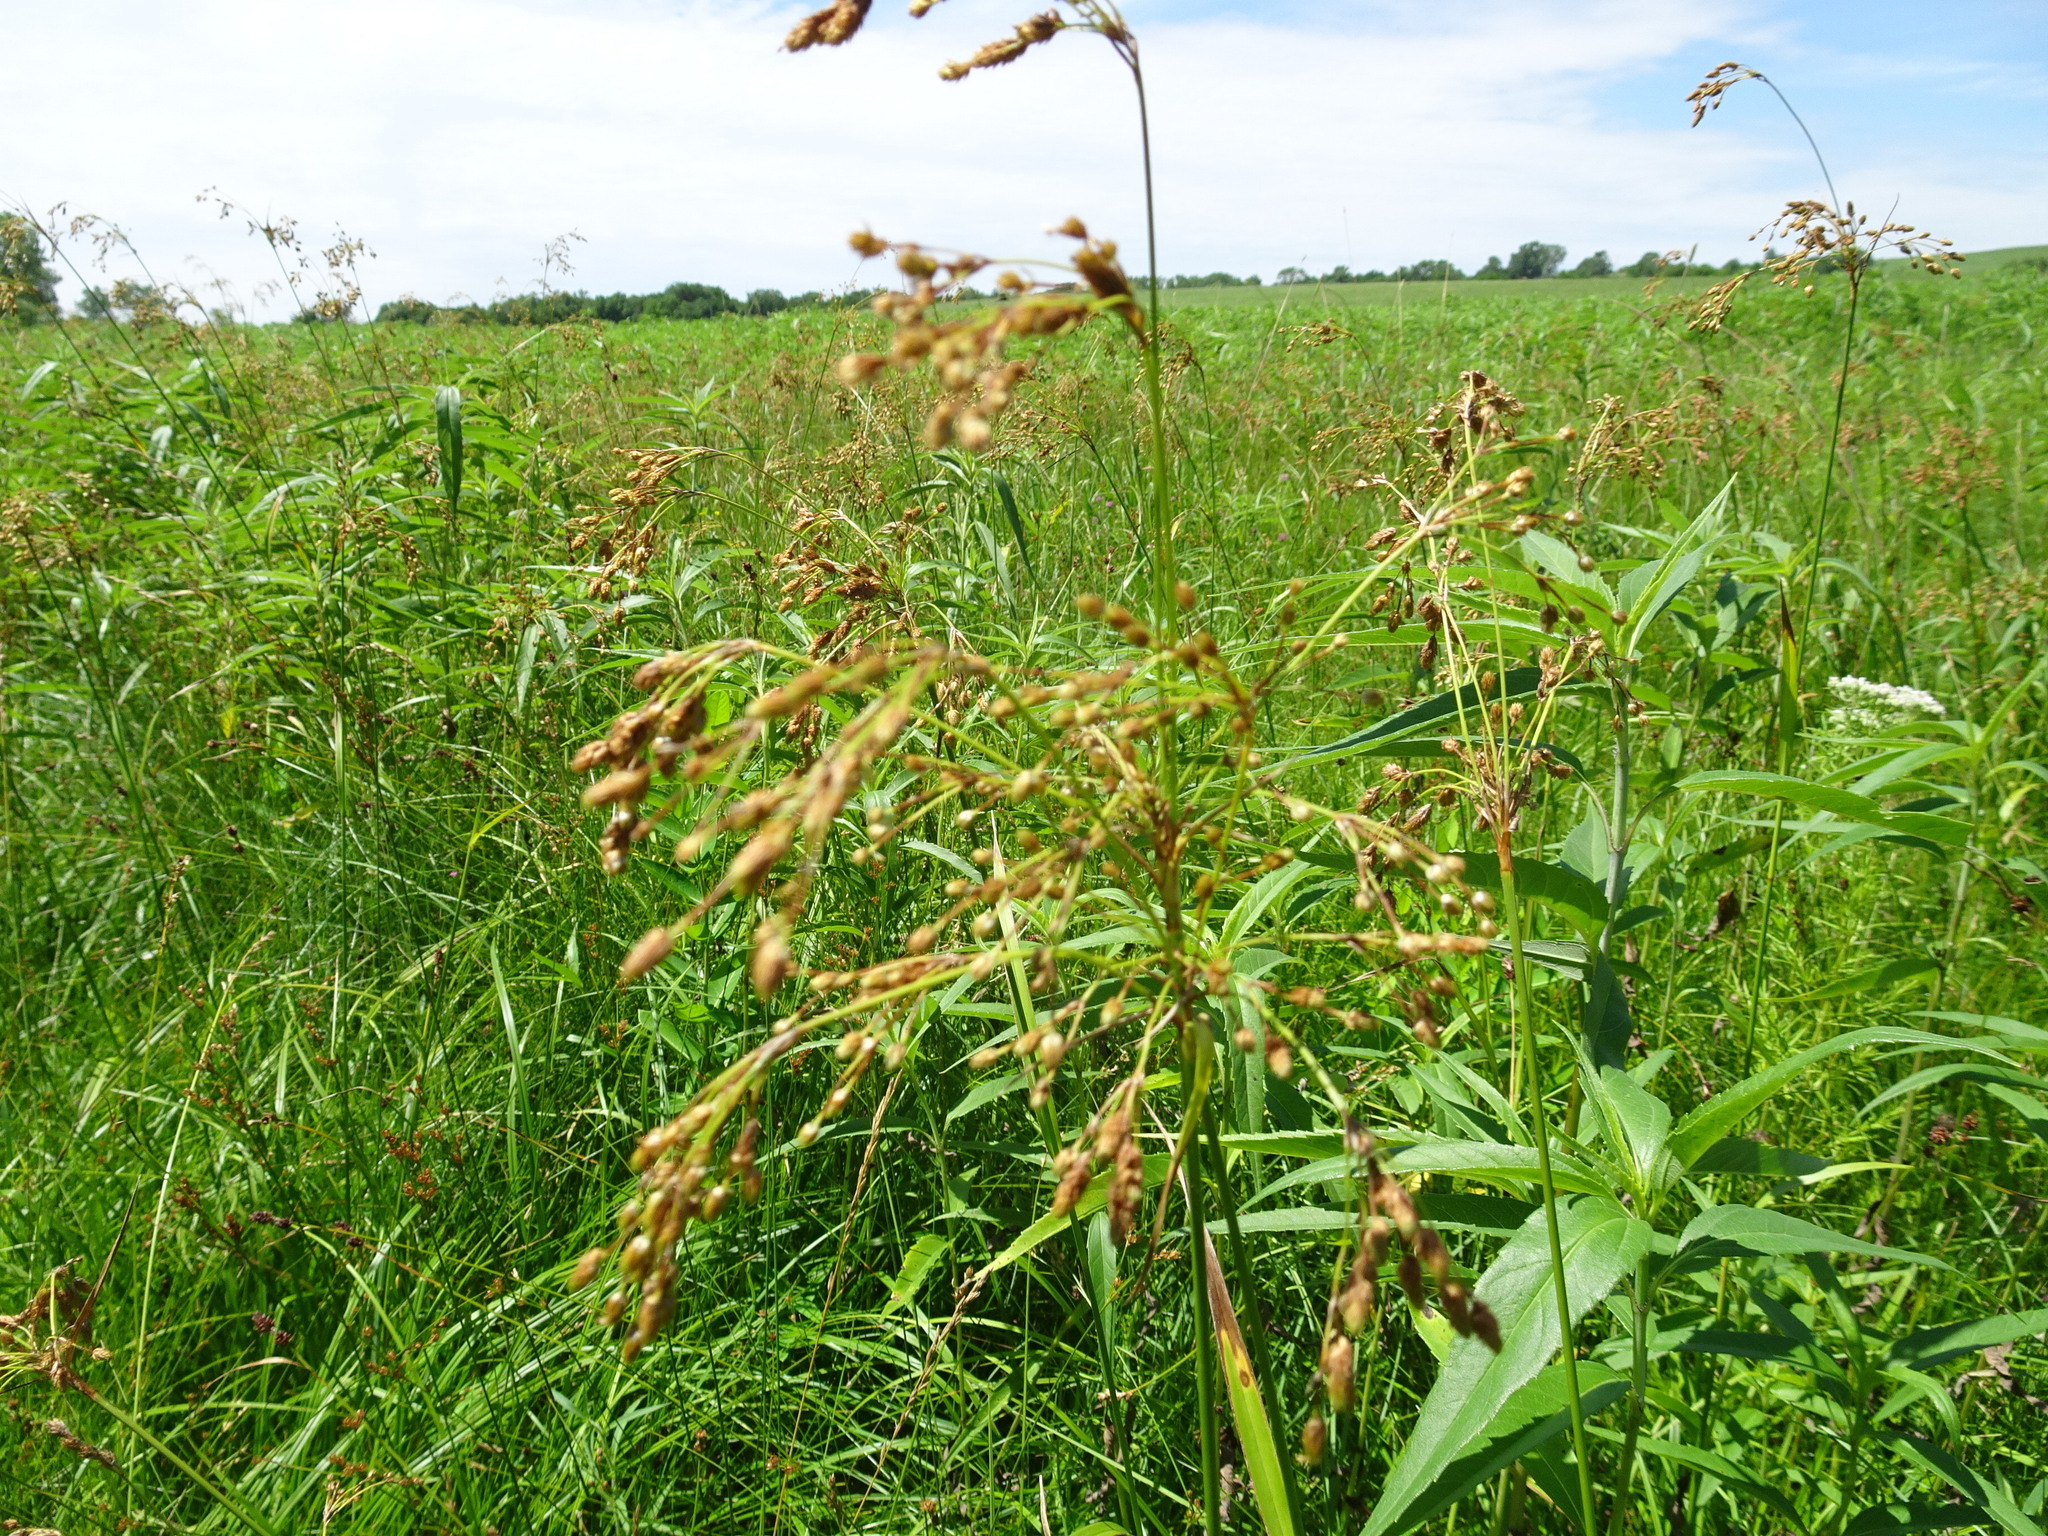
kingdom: Plantae
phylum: Tracheophyta
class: Liliopsida
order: Poales
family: Cyperaceae
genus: Scirpus
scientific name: Scirpus pendulus
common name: Nodding bulrush
